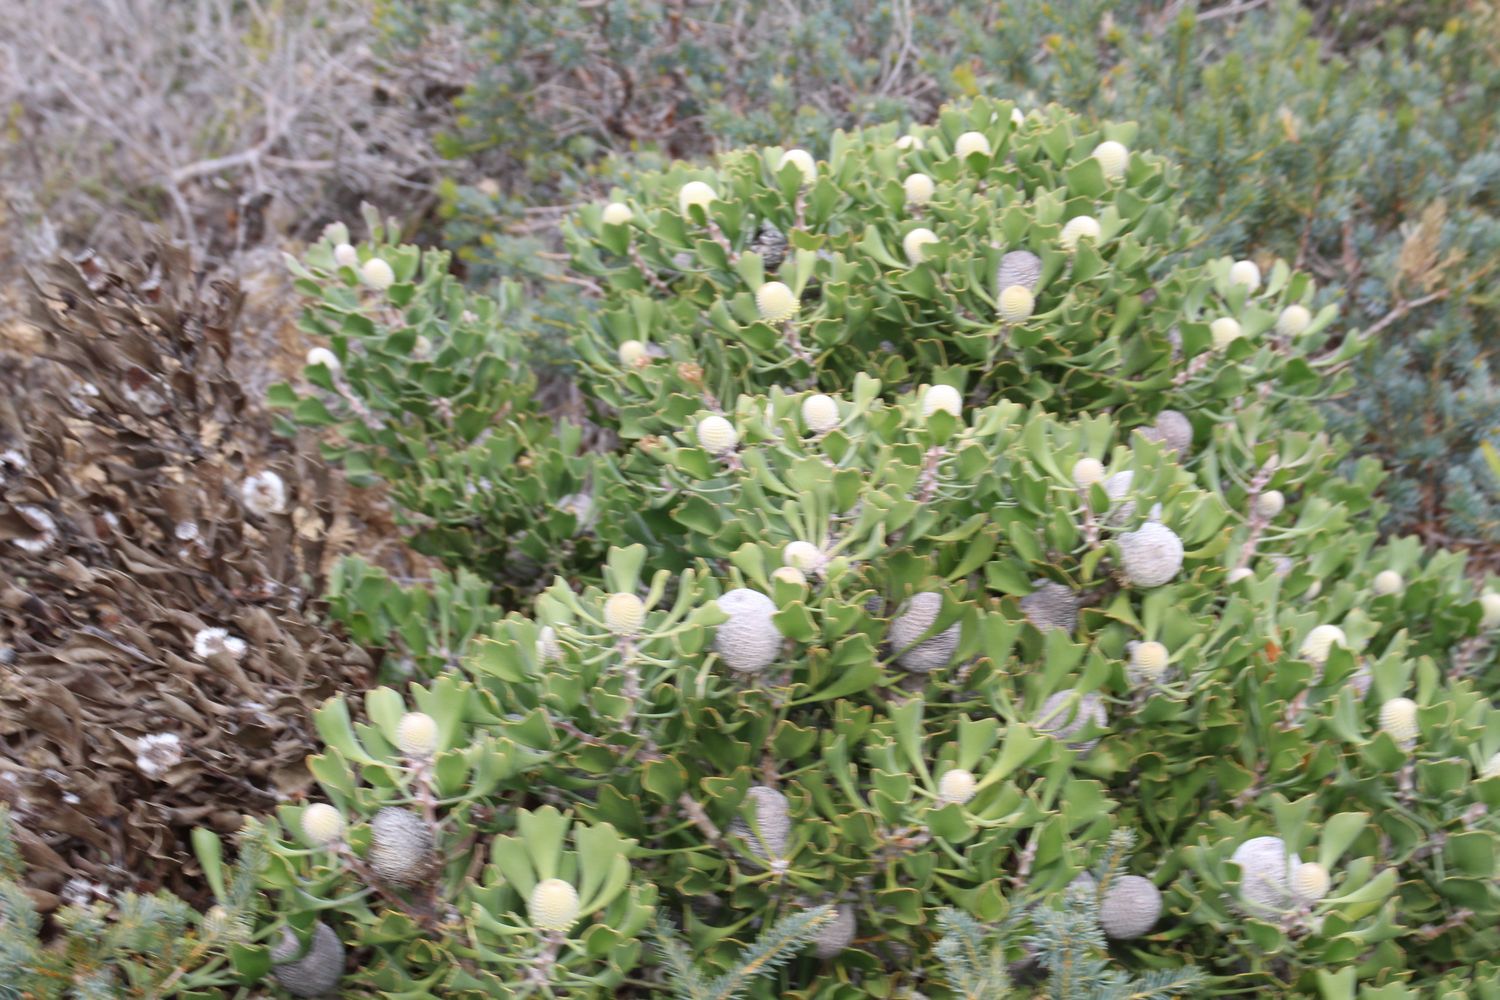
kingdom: Plantae
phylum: Tracheophyta
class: Magnoliopsida
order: Proteales
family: Proteaceae
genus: Isopogon
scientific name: Isopogon trilobus
